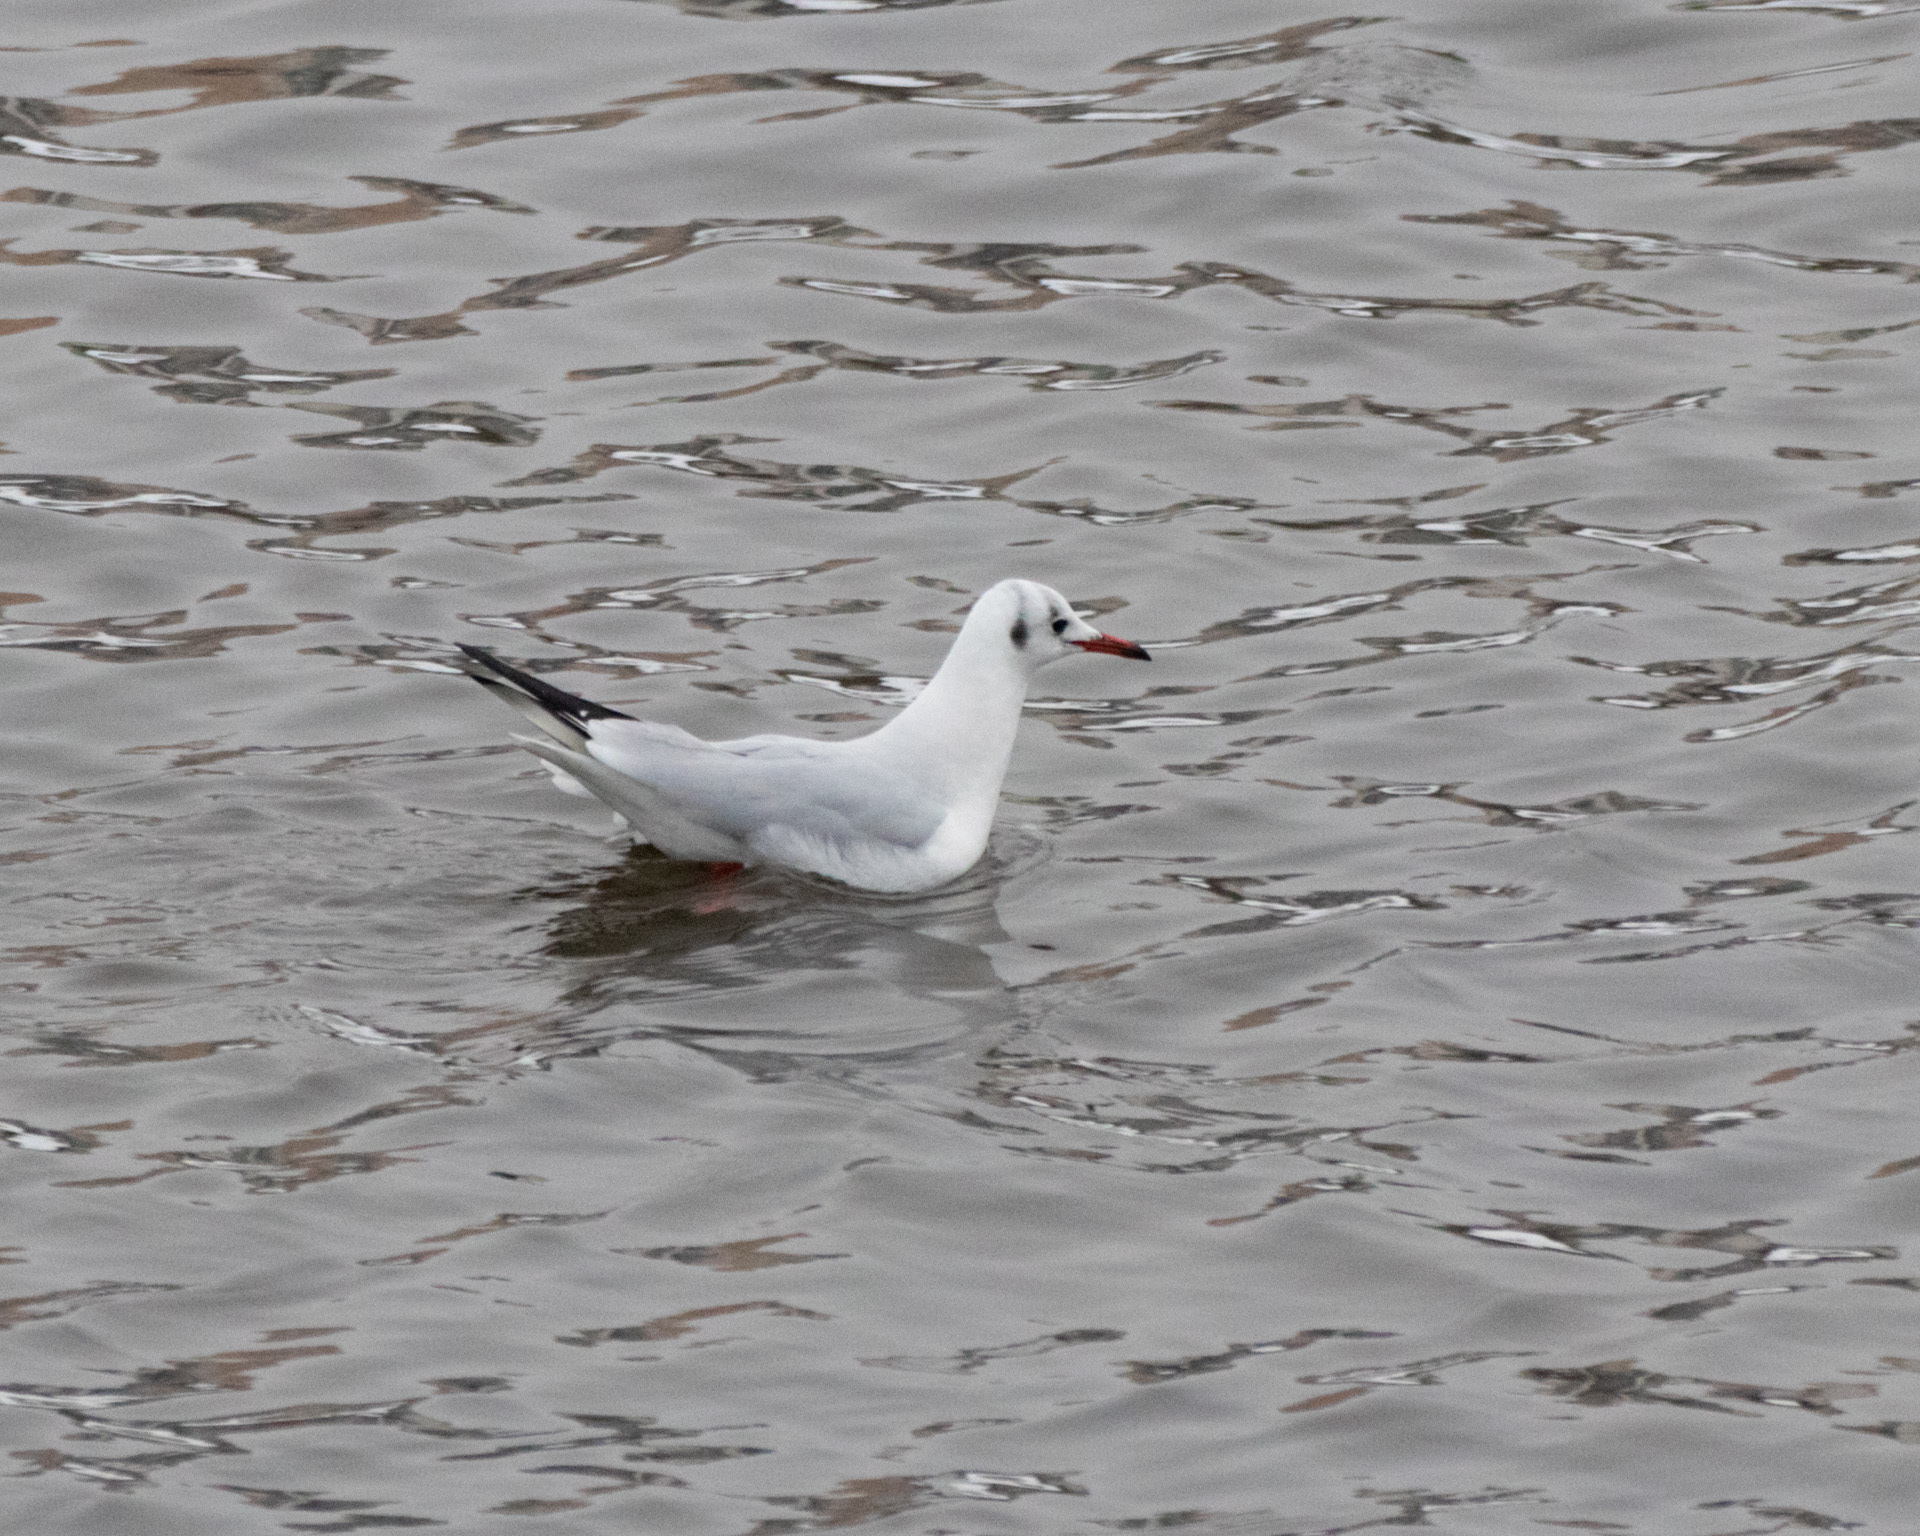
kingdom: Animalia
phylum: Chordata
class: Aves
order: Charadriiformes
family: Laridae
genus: Chroicocephalus
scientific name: Chroicocephalus ridibundus
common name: Black-headed gull
